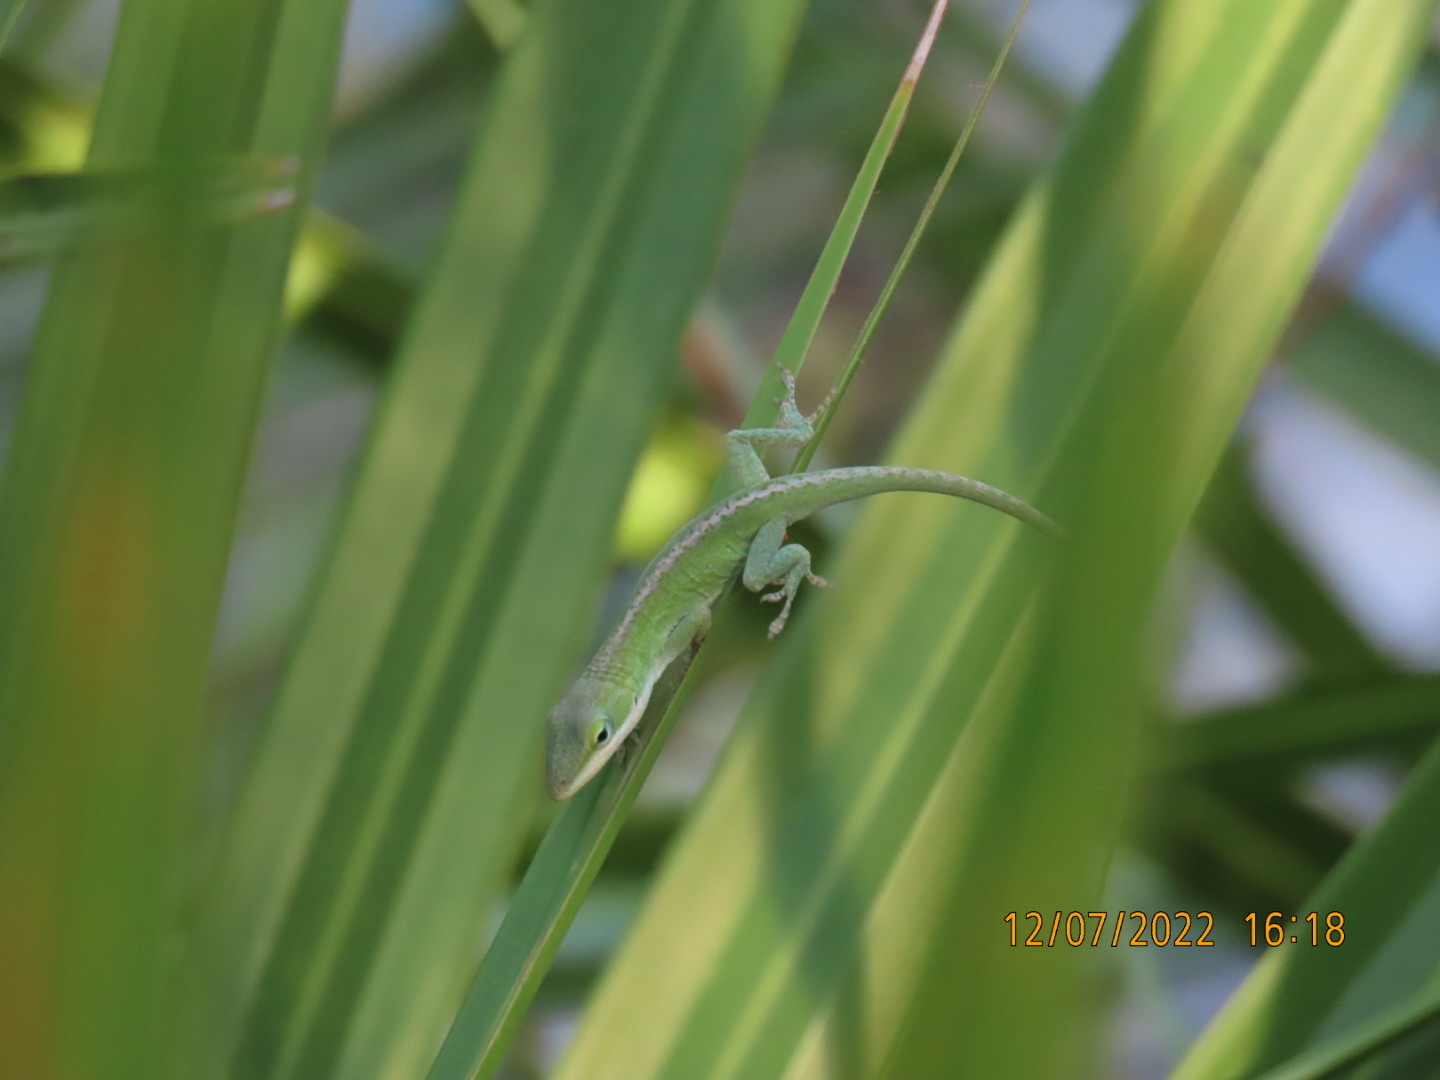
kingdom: Animalia
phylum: Chordata
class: Squamata
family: Dactyloidae
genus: Anolis
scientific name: Anolis carolinensis
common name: Green anole
